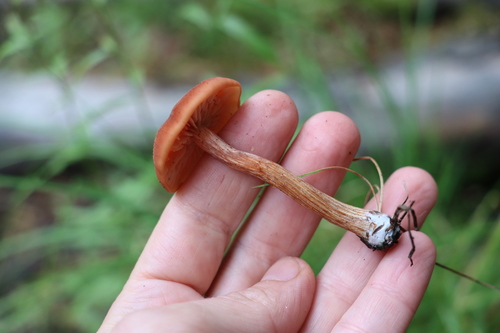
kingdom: Fungi
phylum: Basidiomycota
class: Agaricomycetes
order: Agaricales
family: Hydnangiaceae
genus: Laccaria
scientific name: Laccaria laccata
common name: Deceiver
